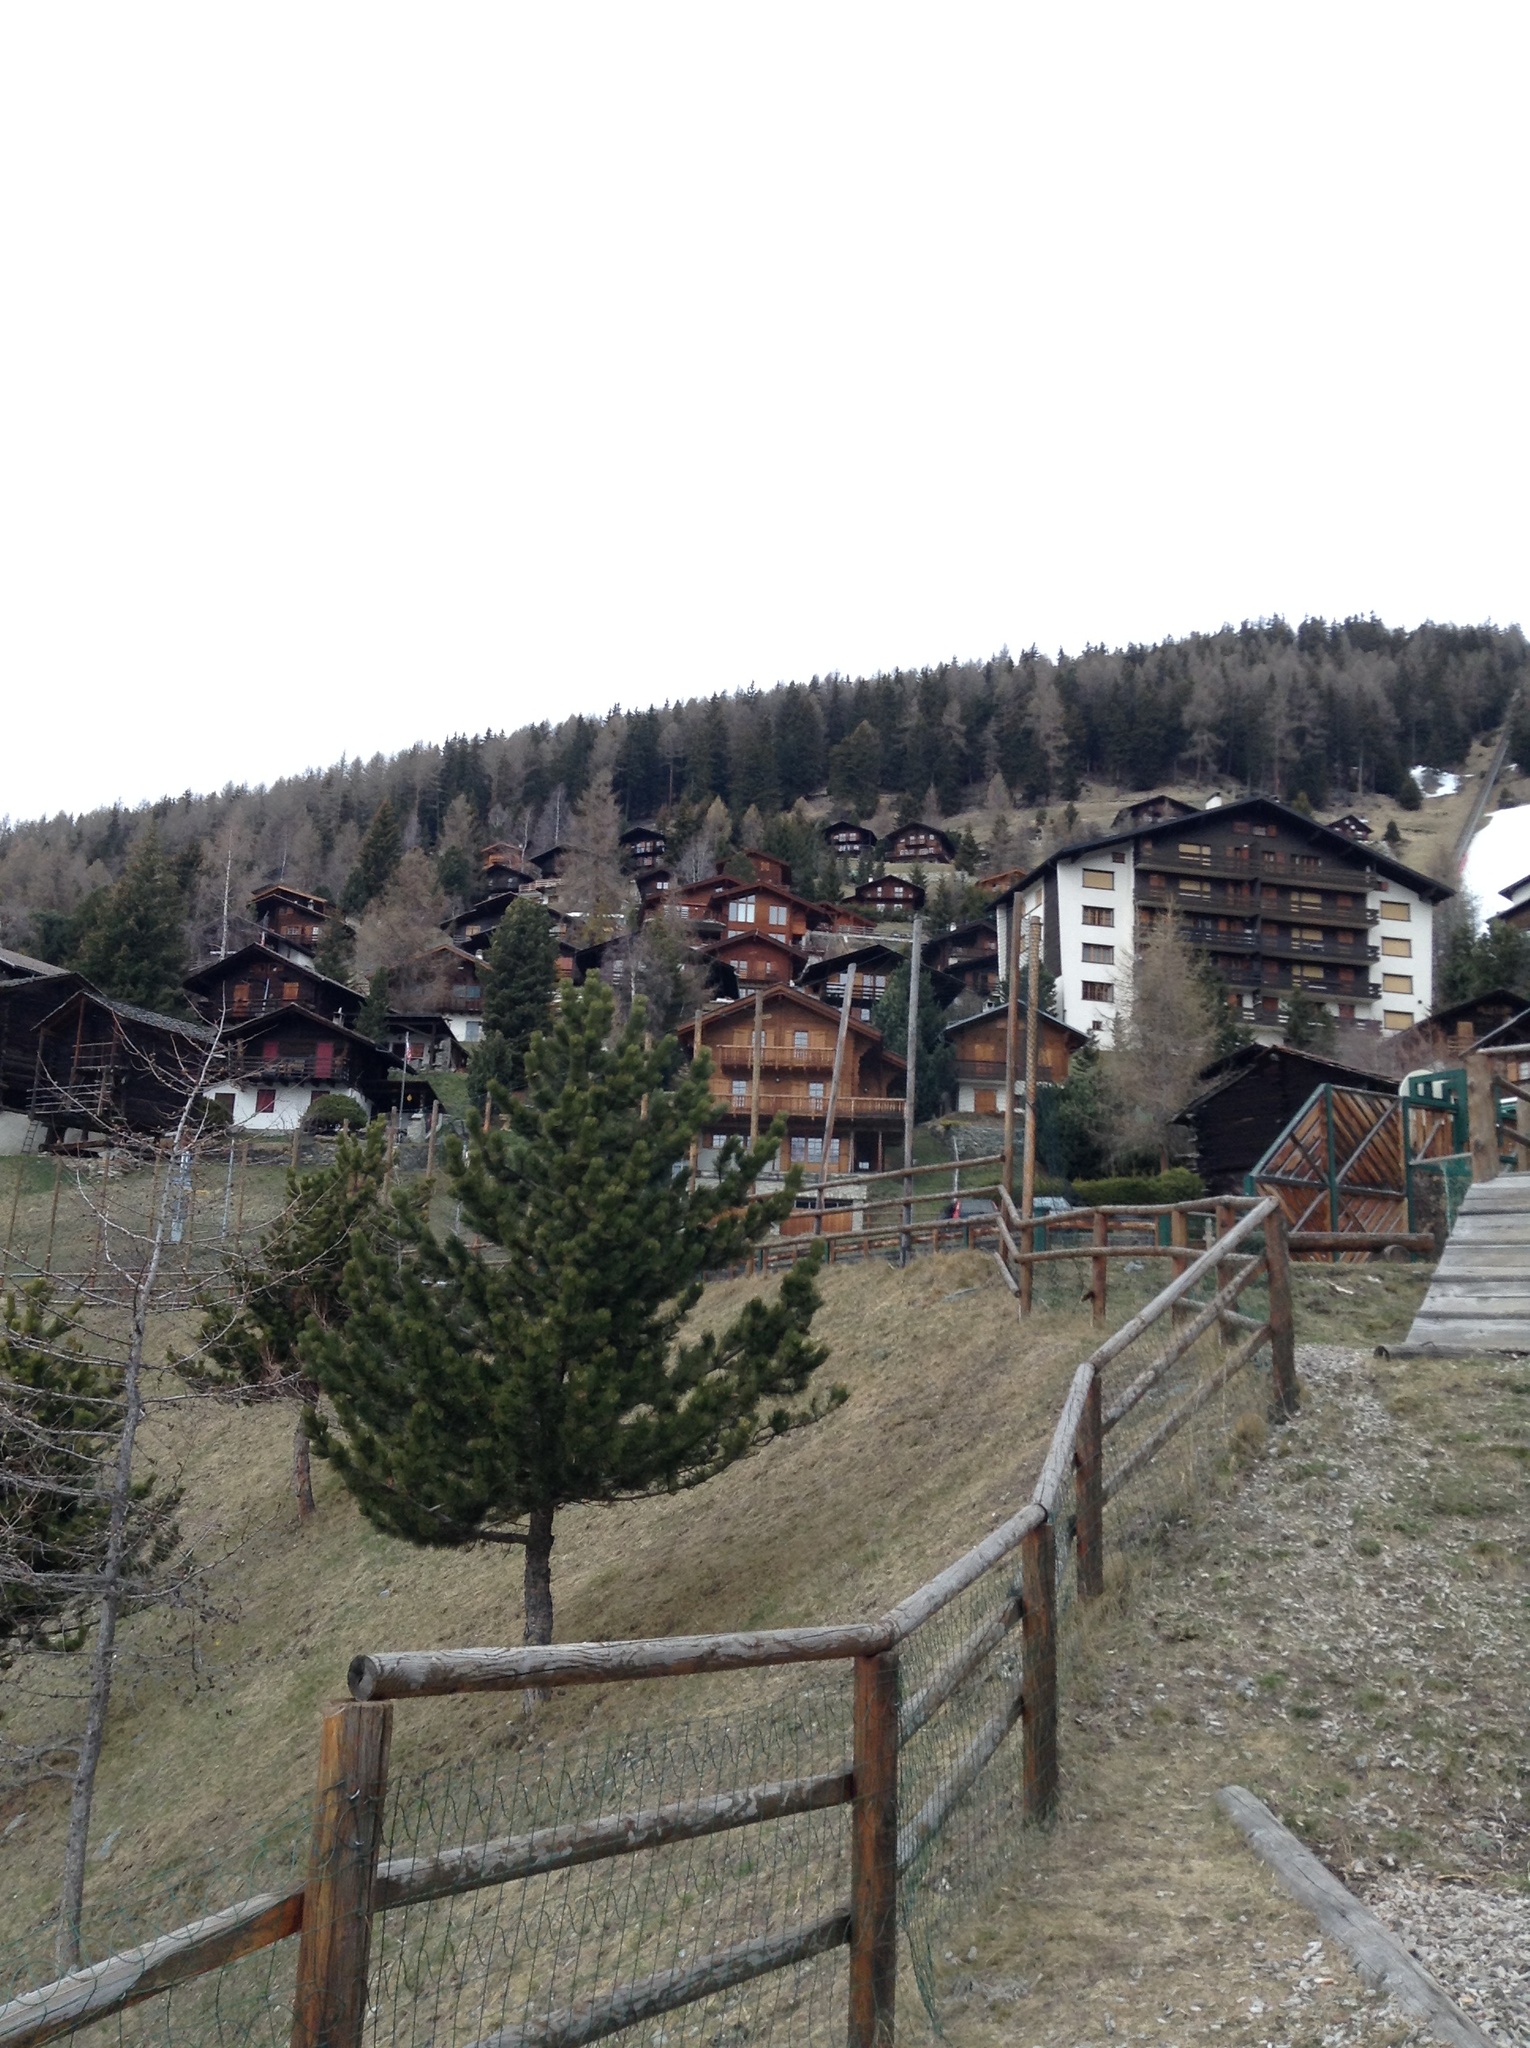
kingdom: Plantae
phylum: Tracheophyta
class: Pinopsida
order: Pinales
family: Pinaceae
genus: Pinus
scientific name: Pinus cembra
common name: Arolla pine
